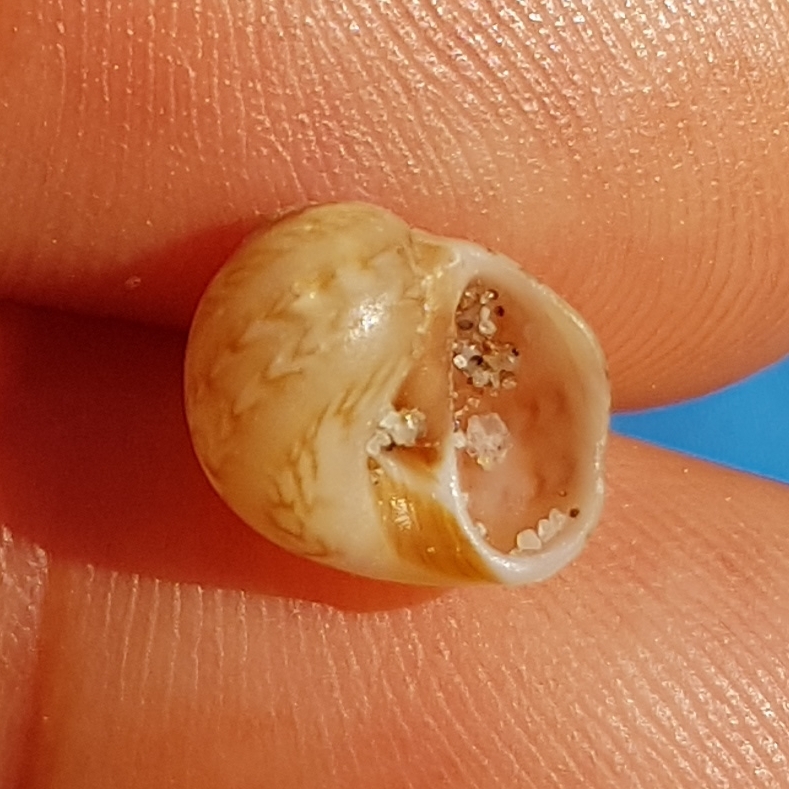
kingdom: Animalia
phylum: Mollusca
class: Gastropoda
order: Littorinimorpha
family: Naticidae
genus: Euspira
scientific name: Euspira nitida
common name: Alder's necklace shell
